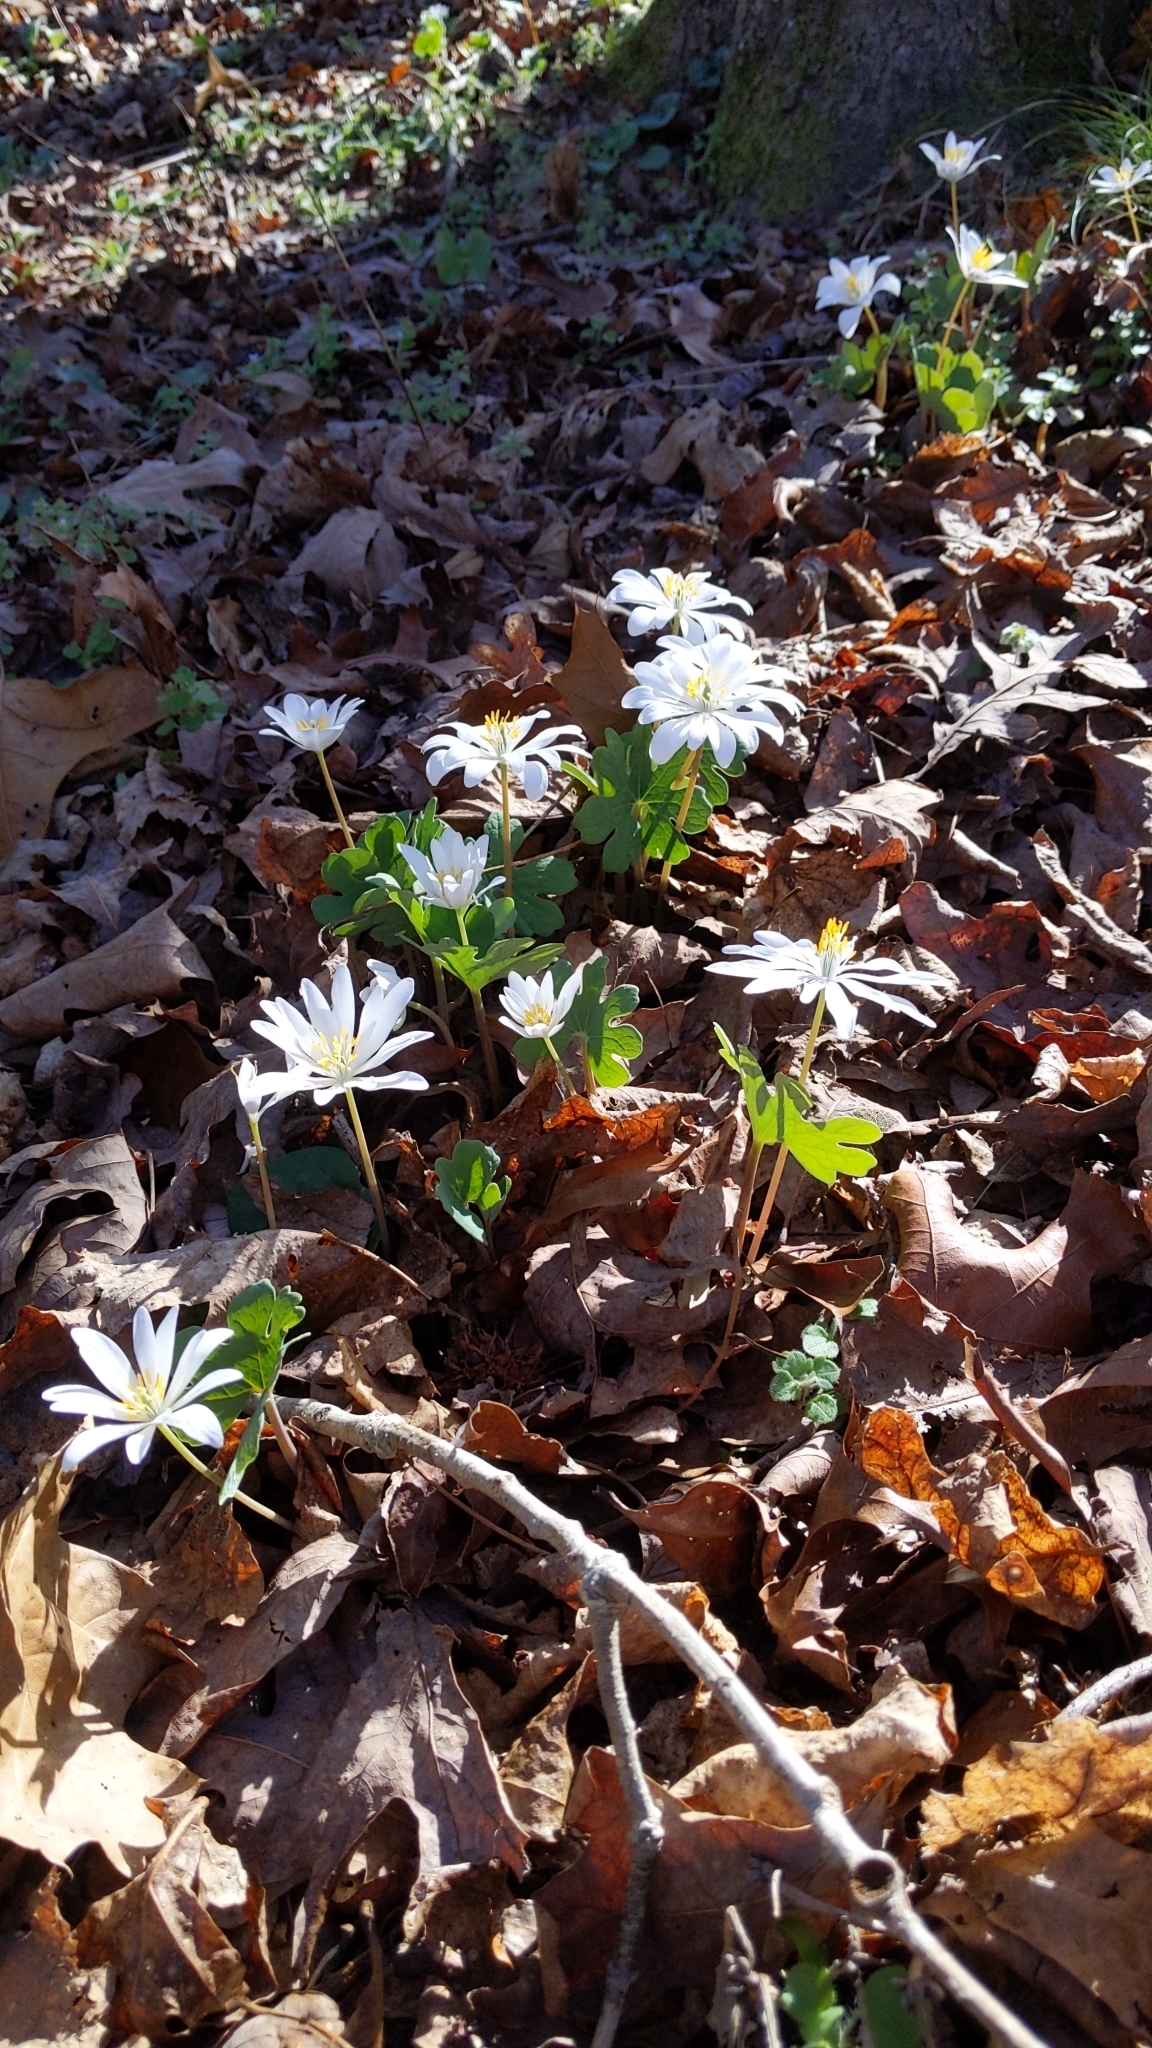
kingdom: Plantae
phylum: Tracheophyta
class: Magnoliopsida
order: Ranunculales
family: Papaveraceae
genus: Sanguinaria
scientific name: Sanguinaria canadensis
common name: Bloodroot
